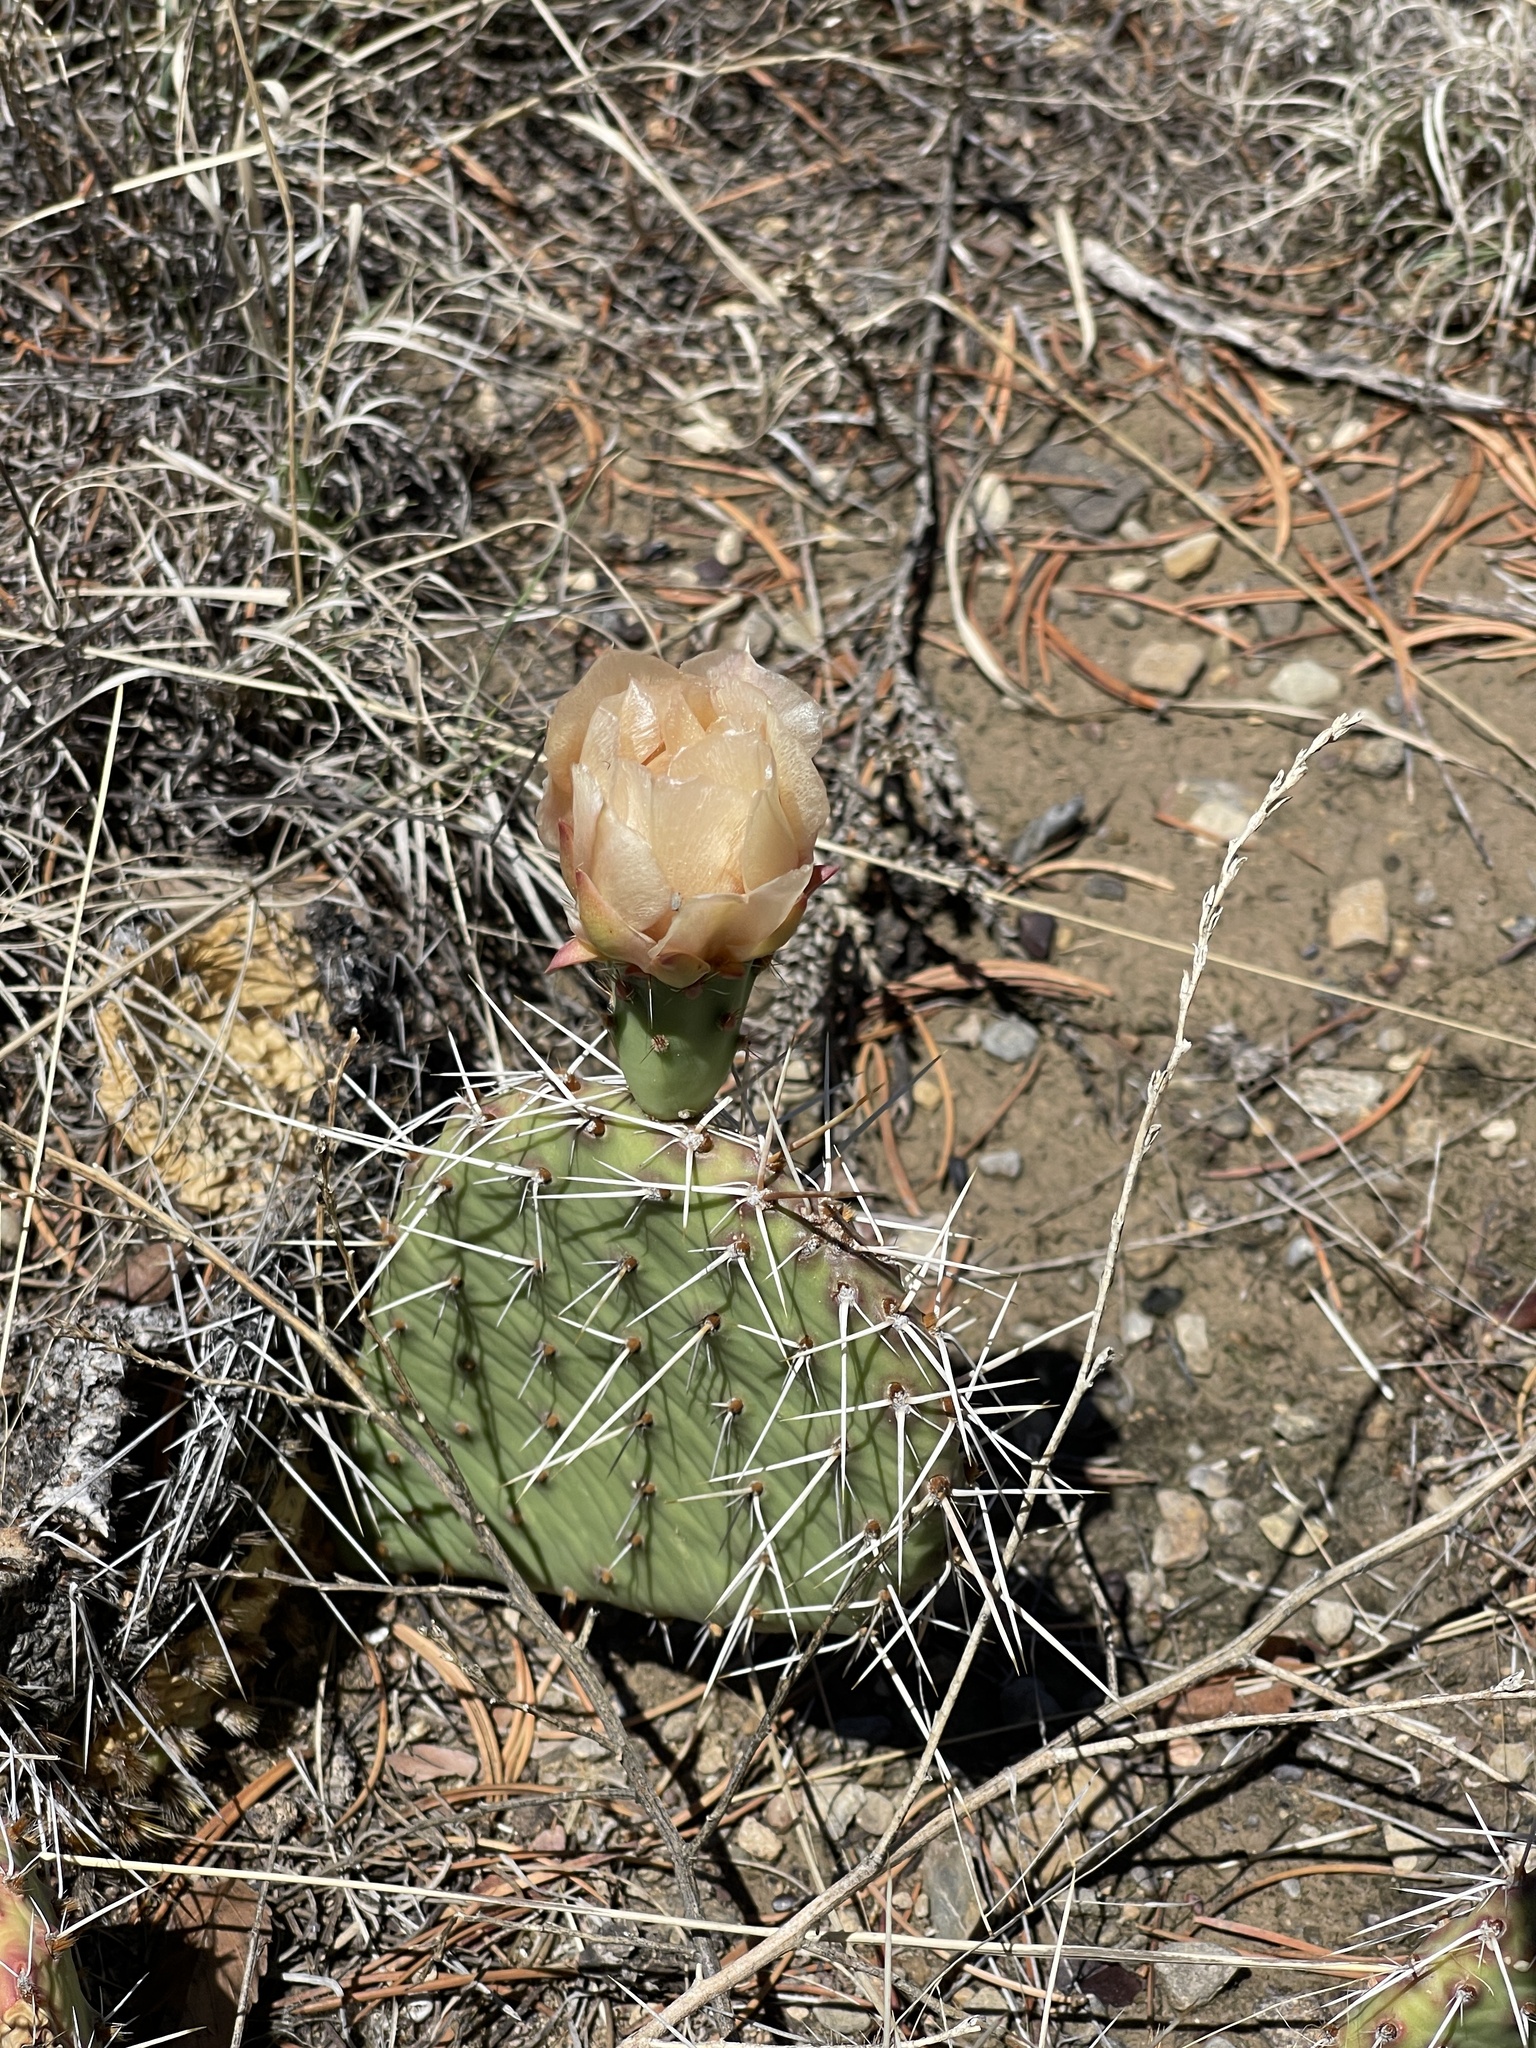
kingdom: Plantae
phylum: Tracheophyta
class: Magnoliopsida
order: Caryophyllales
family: Cactaceae
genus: Opuntia
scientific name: Opuntia cymochila
